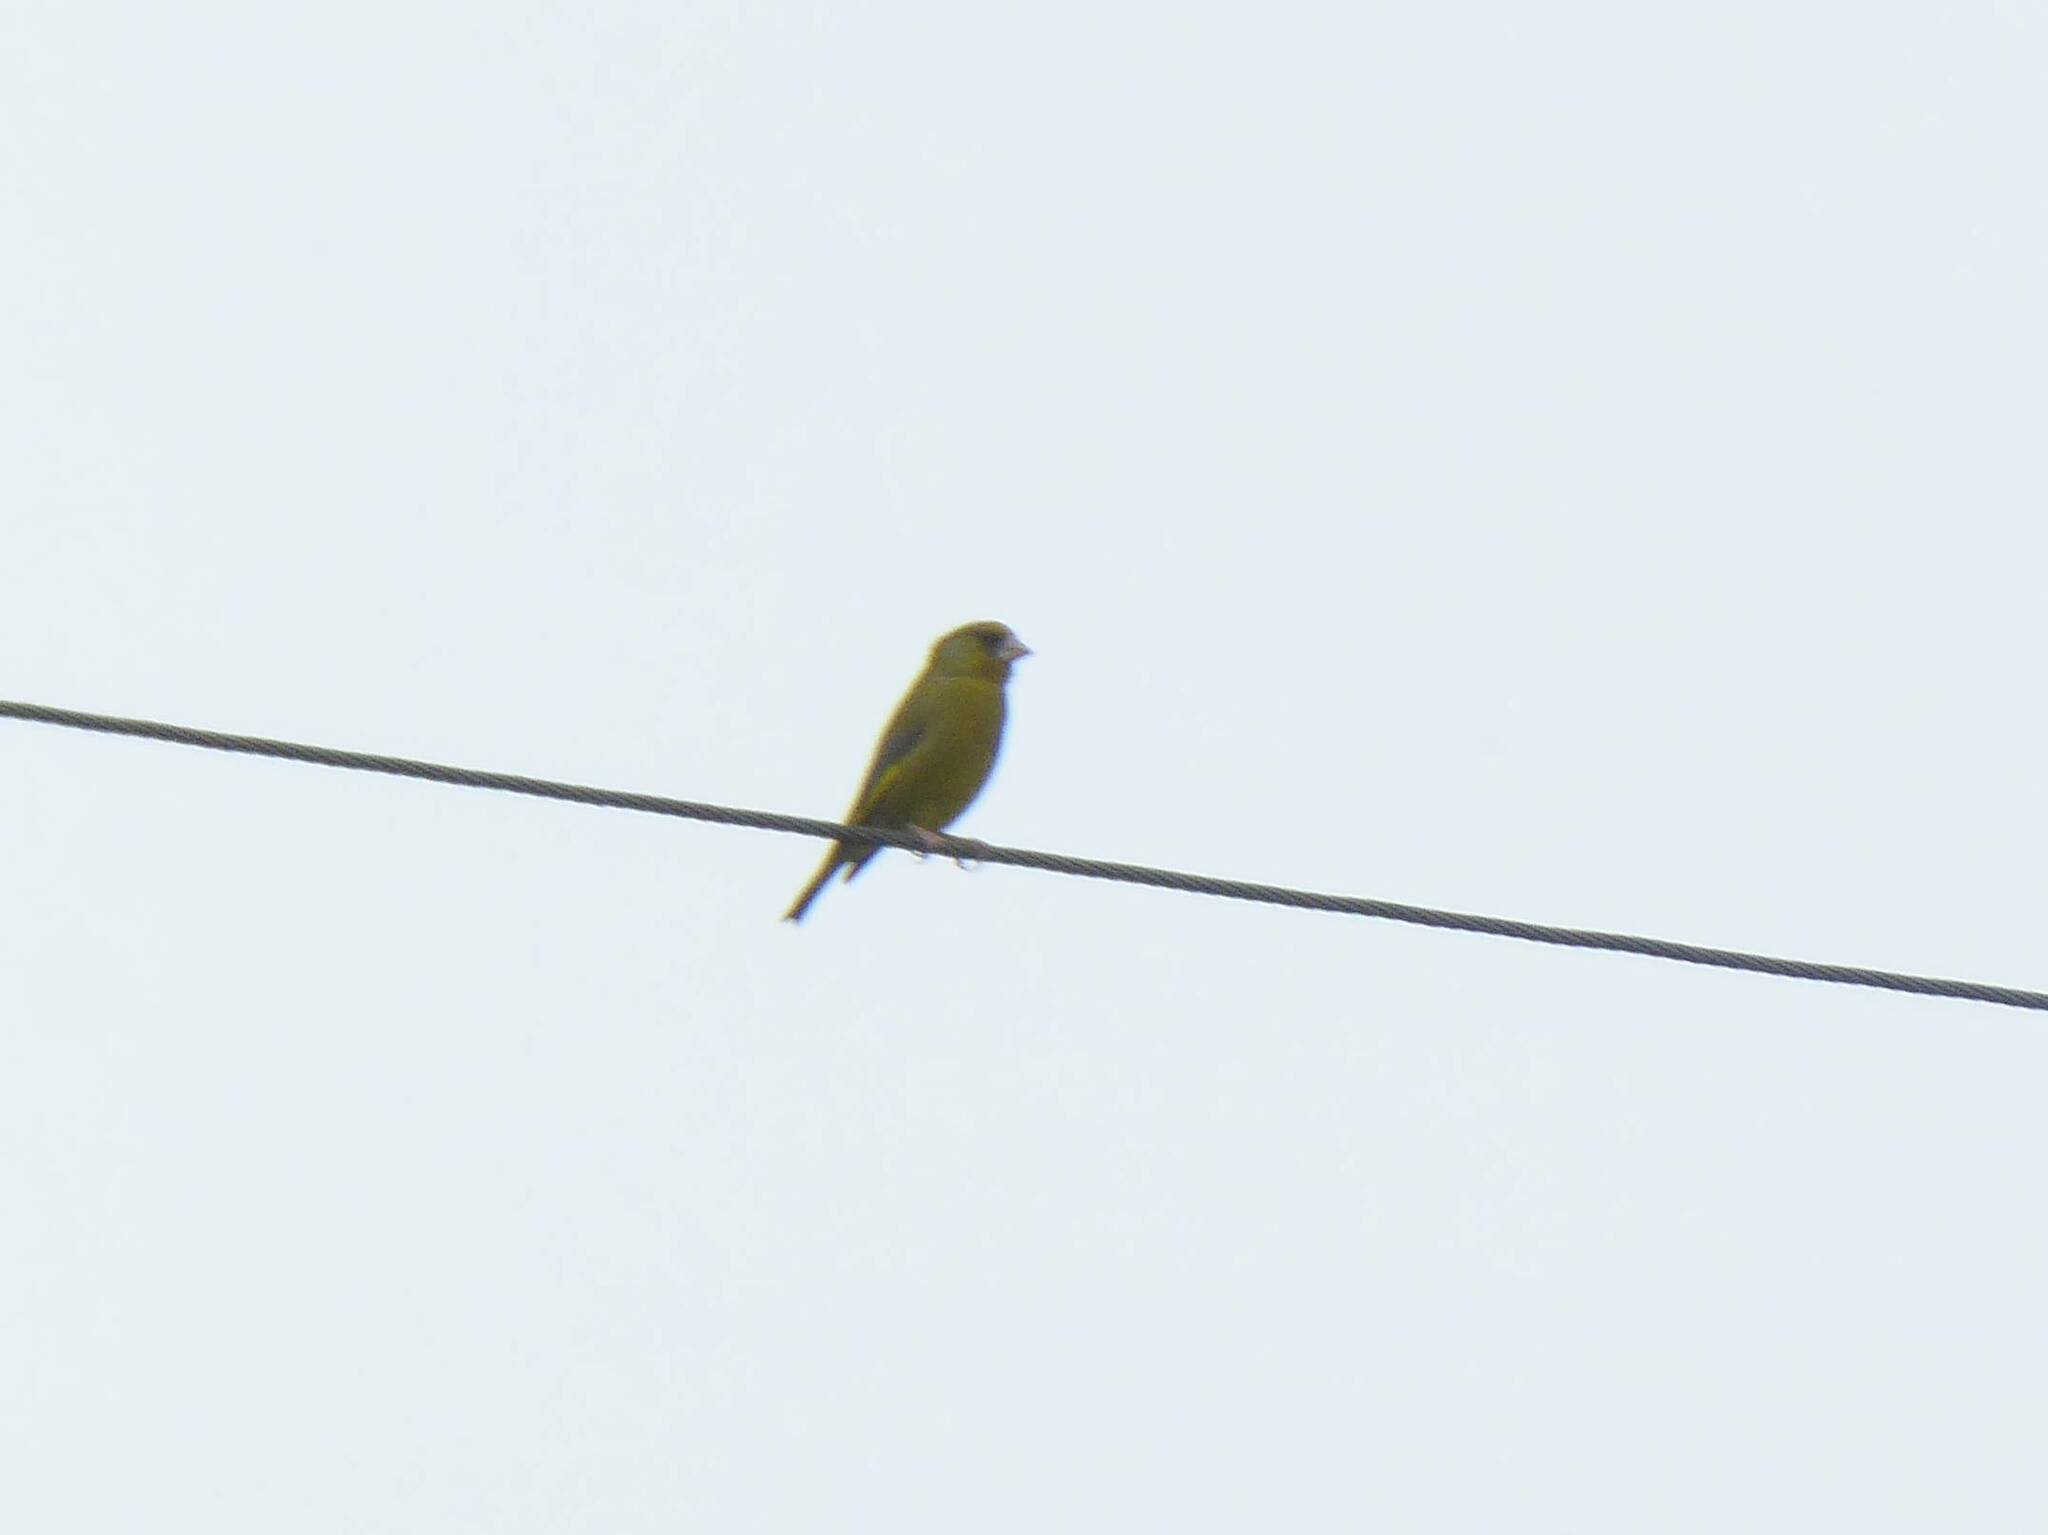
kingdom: Plantae
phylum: Tracheophyta
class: Liliopsida
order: Poales
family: Poaceae
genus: Chloris
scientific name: Chloris chloris
